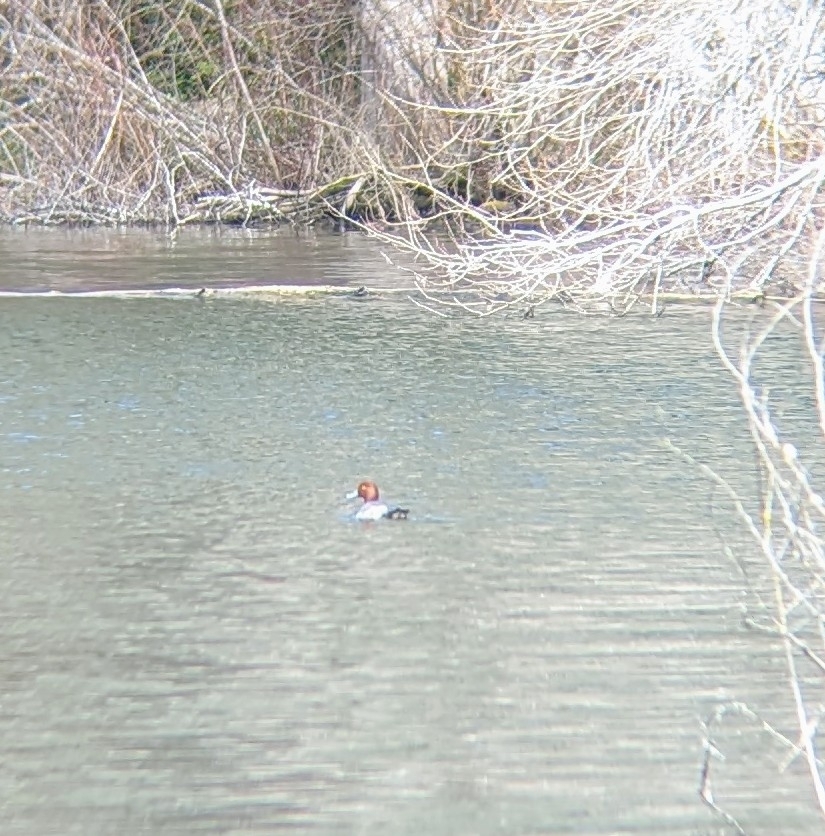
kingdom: Animalia
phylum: Chordata
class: Aves
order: Anseriformes
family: Anatidae
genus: Aythya
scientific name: Aythya americana
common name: Redhead
